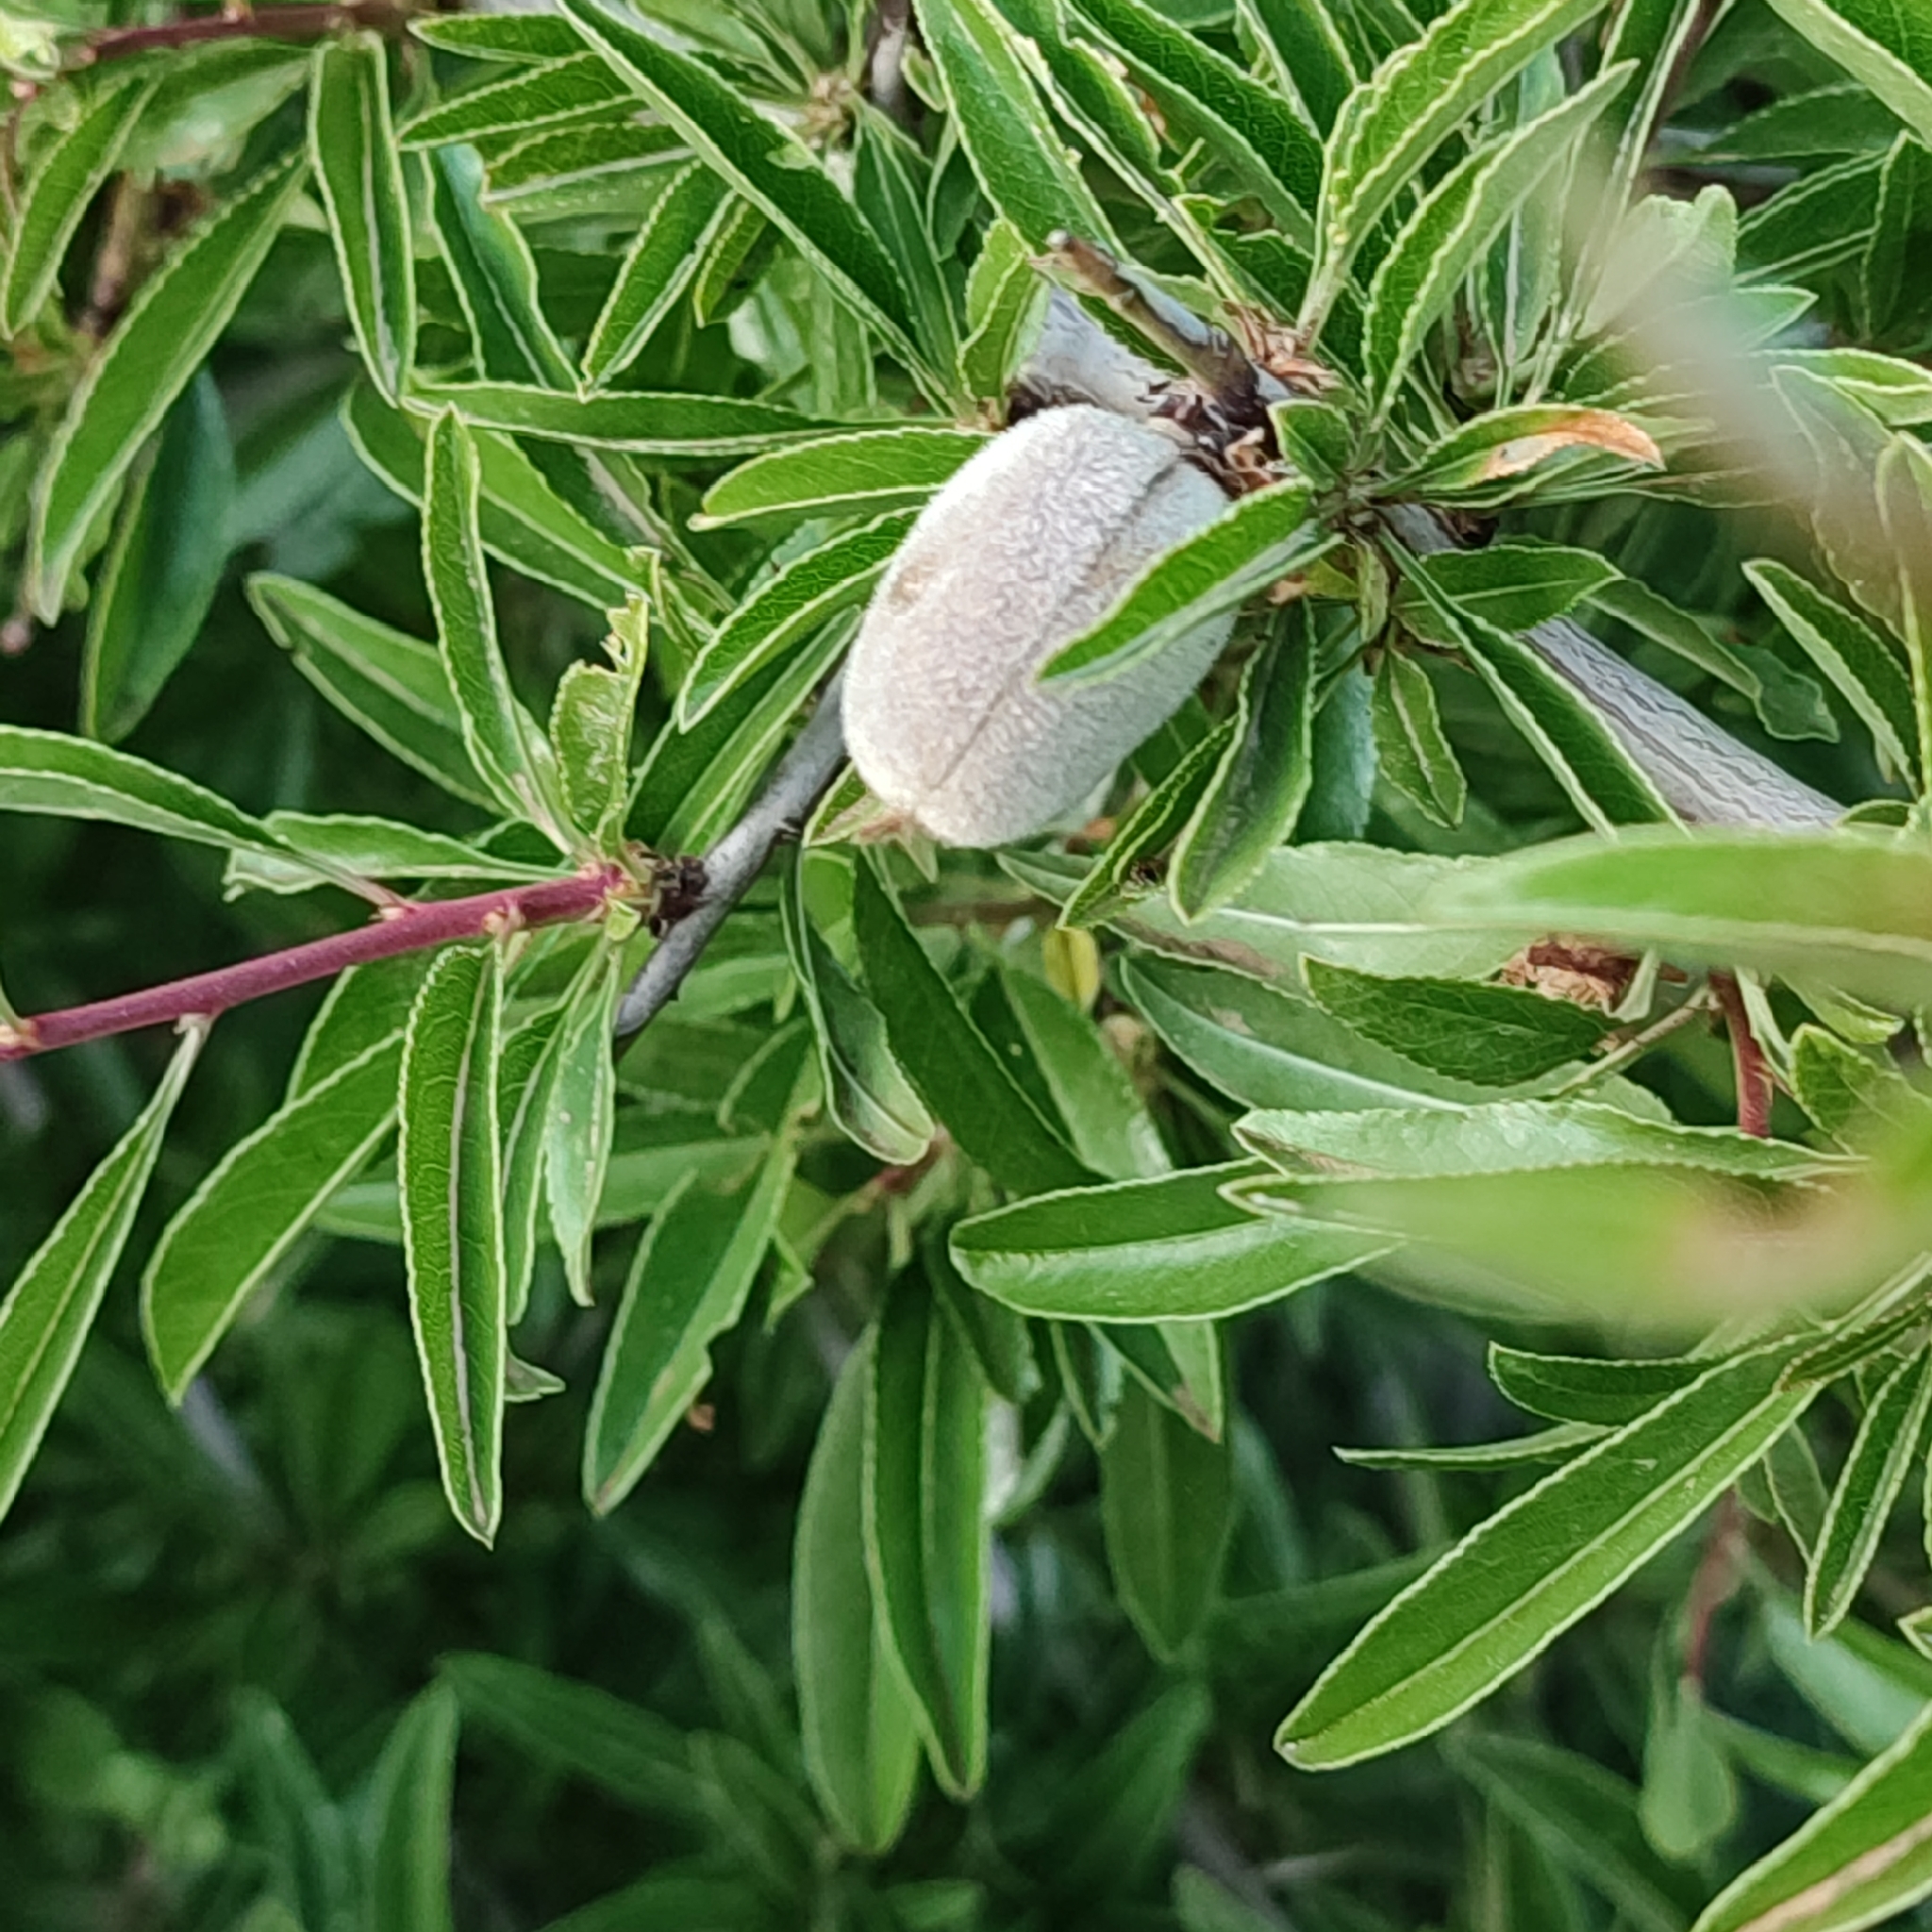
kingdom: Plantae
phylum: Tracheophyta
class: Magnoliopsida
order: Rosales
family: Rosaceae
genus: Prunus
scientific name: Prunus amygdalus
